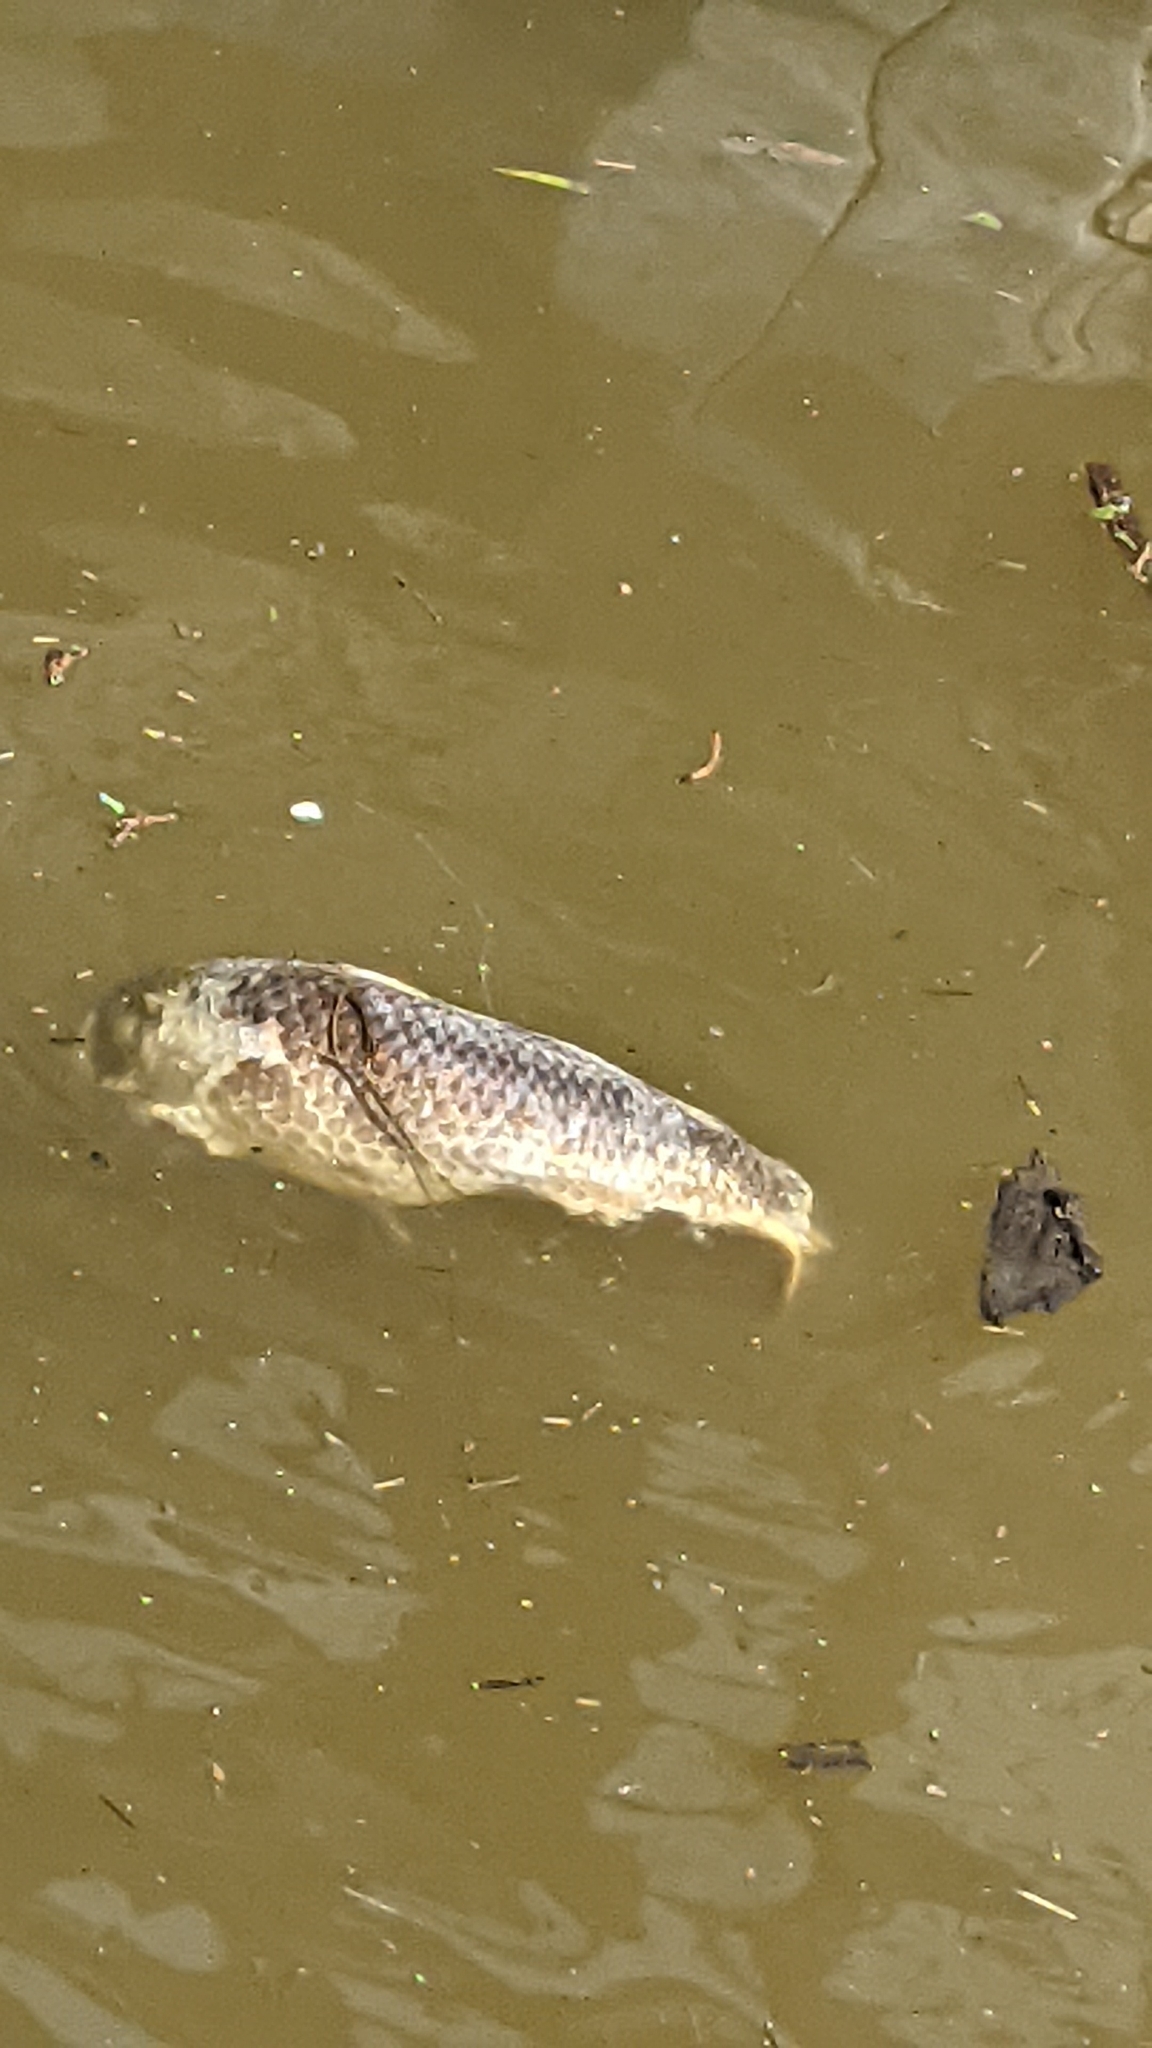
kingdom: Animalia
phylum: Chordata
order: Cypriniformes
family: Cyprinidae
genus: Cyprinus
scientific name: Cyprinus carpio
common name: Common carp
